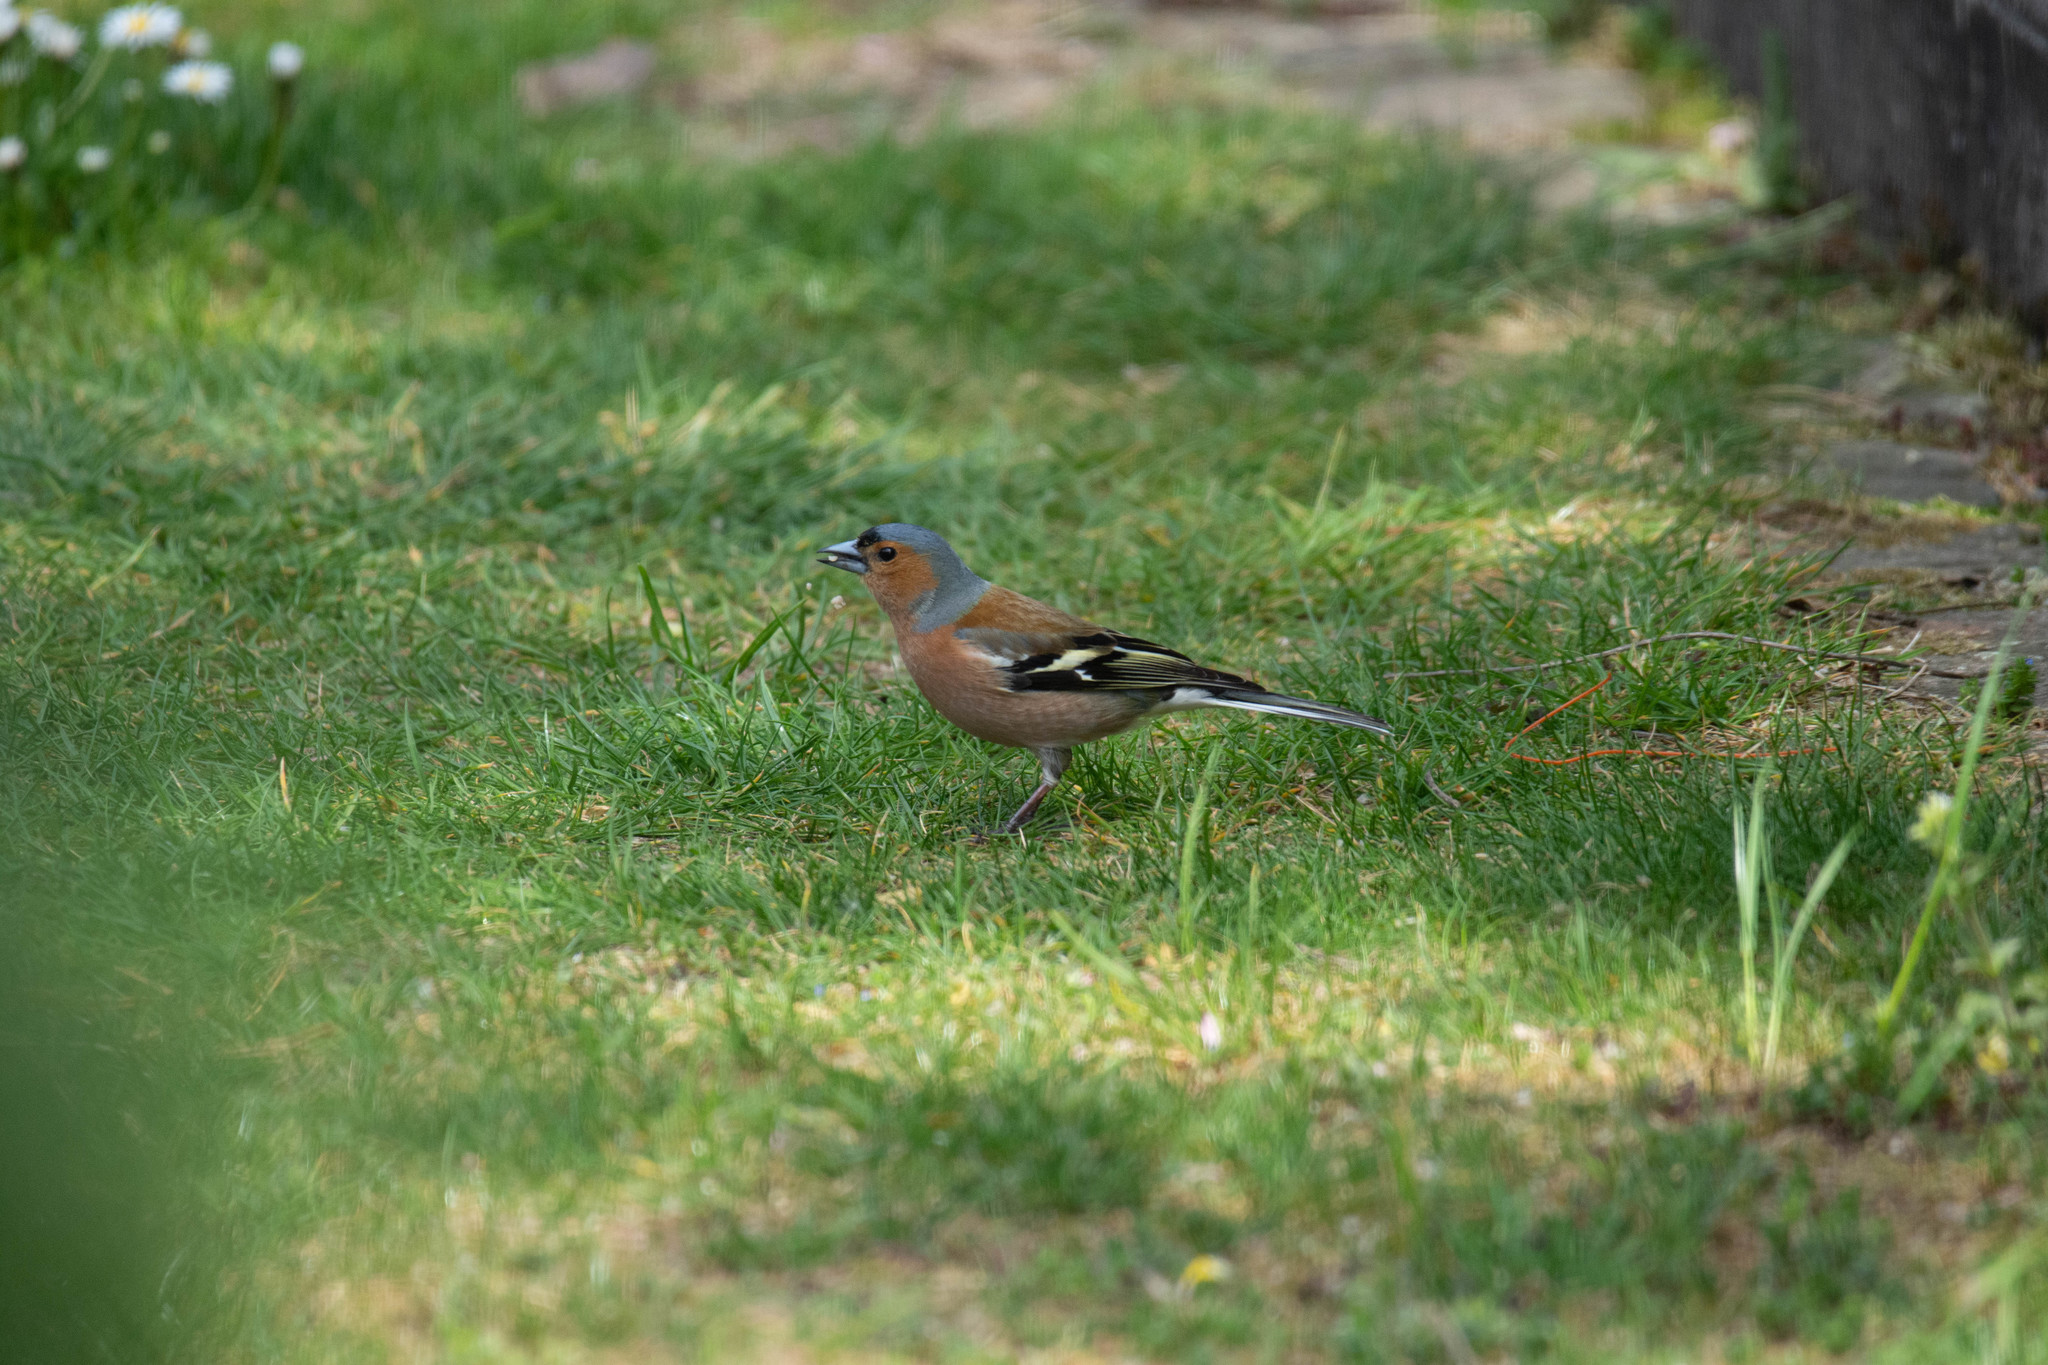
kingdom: Animalia
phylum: Chordata
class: Aves
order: Passeriformes
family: Fringillidae
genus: Fringilla
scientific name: Fringilla coelebs
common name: Common chaffinch
